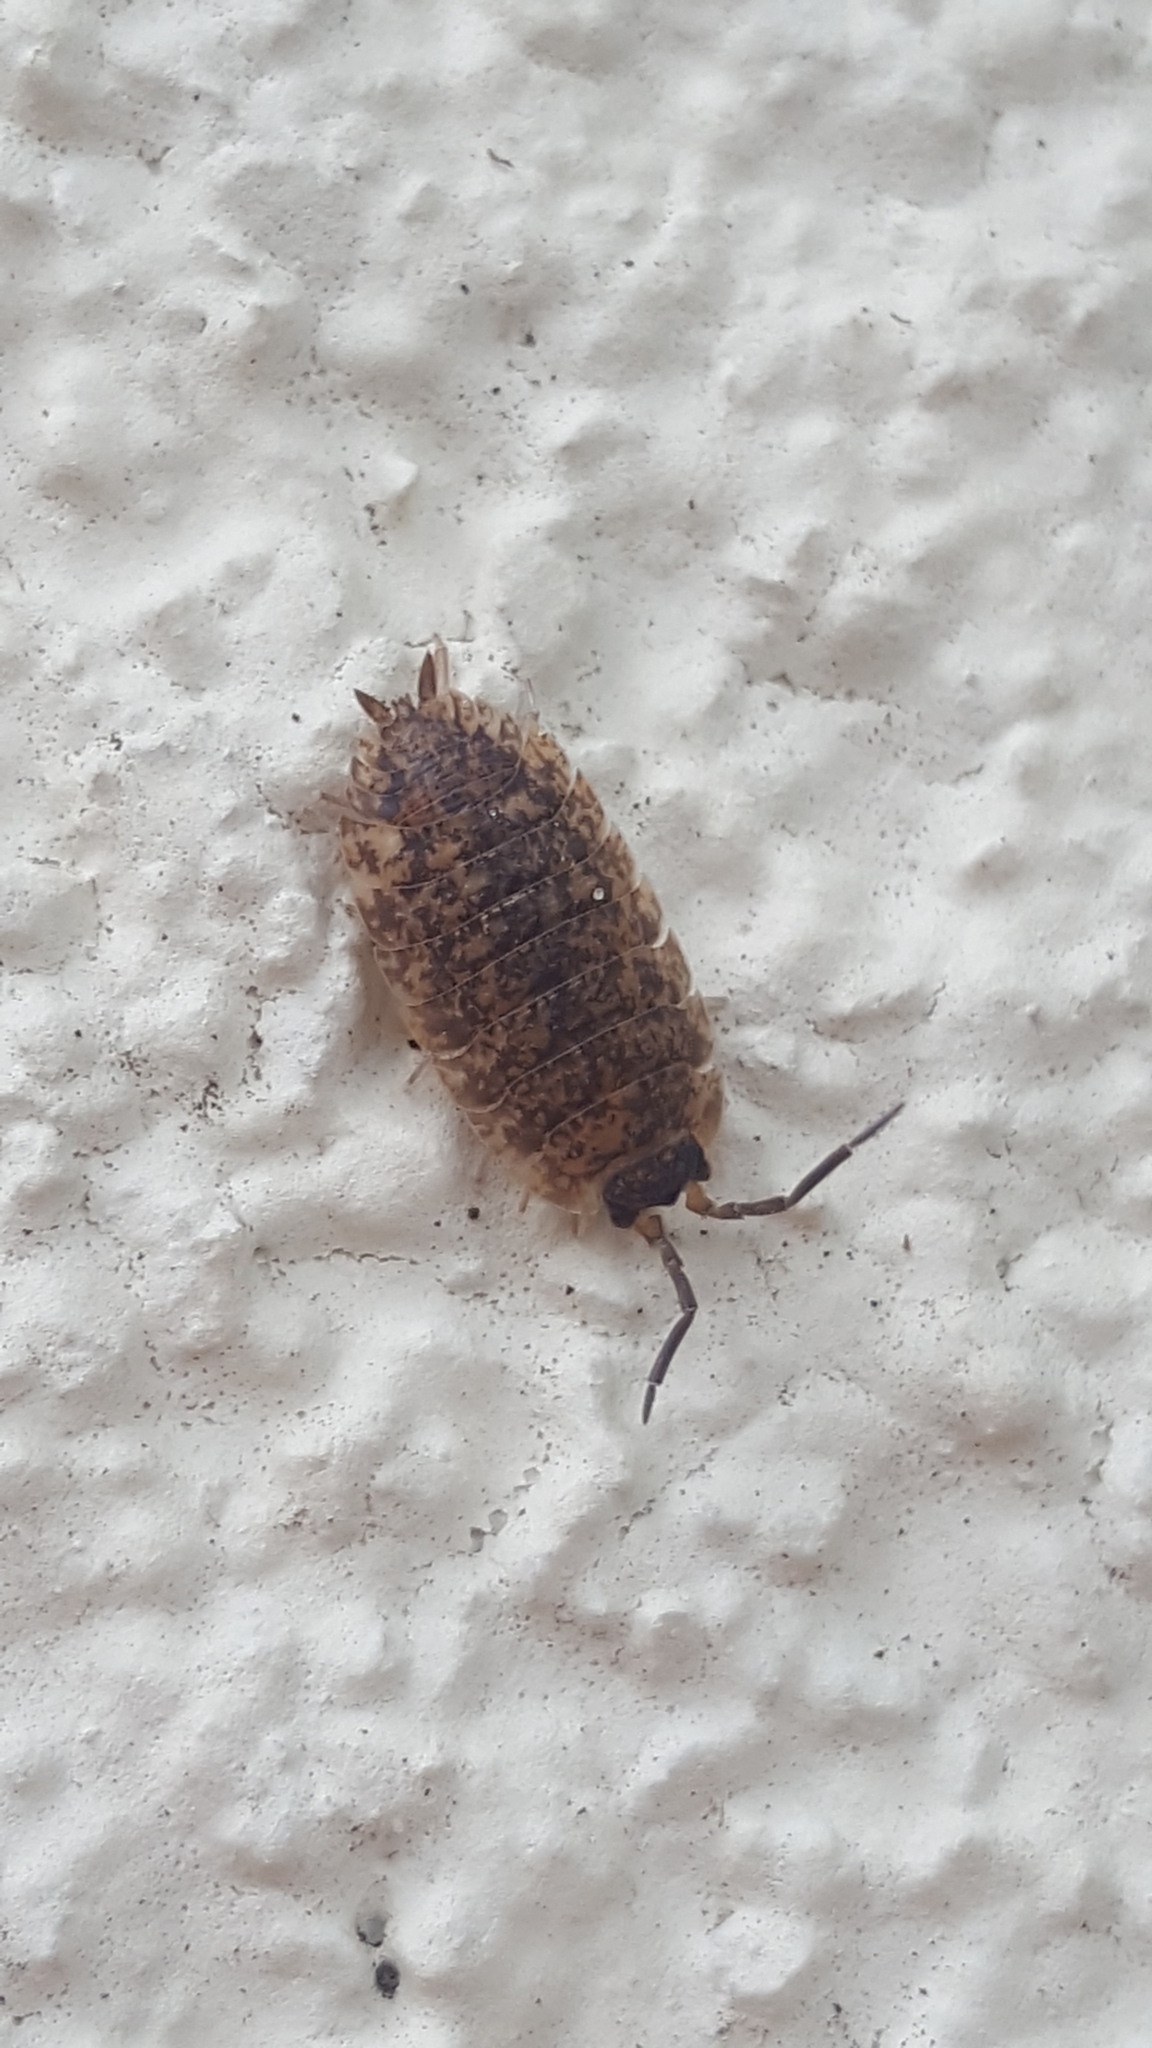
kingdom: Animalia
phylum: Arthropoda
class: Malacostraca
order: Isopoda
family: Porcellionidae
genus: Porcellio
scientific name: Porcellio scaber
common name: Common rough woodlouse
